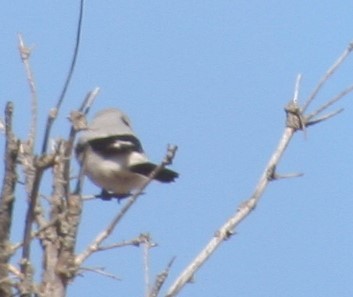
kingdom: Animalia
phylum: Chordata
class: Aves
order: Passeriformes
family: Laniidae
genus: Lanius
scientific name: Lanius borealis
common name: Northern shrike
